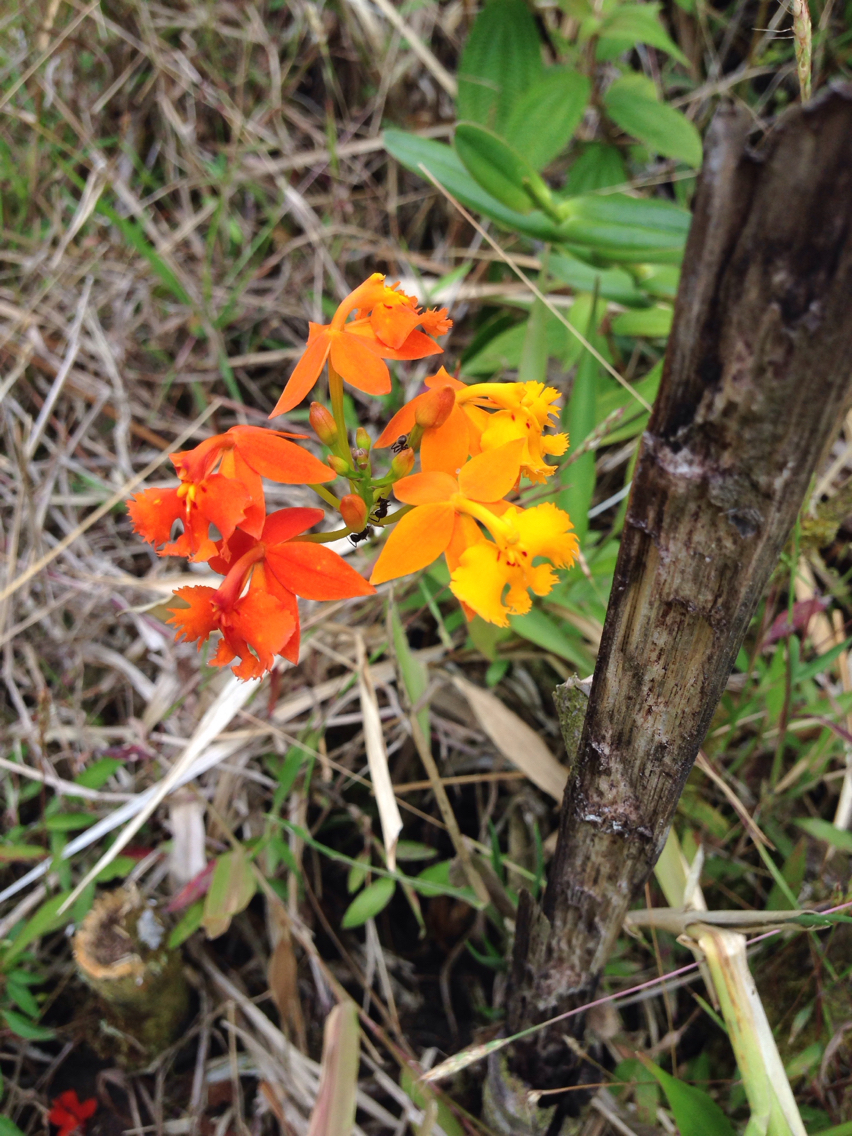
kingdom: Plantae
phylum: Tracheophyta
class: Liliopsida
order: Asparagales
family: Orchidaceae
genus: Epidendrum
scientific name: Epidendrum radicans
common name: Fire star orchid
